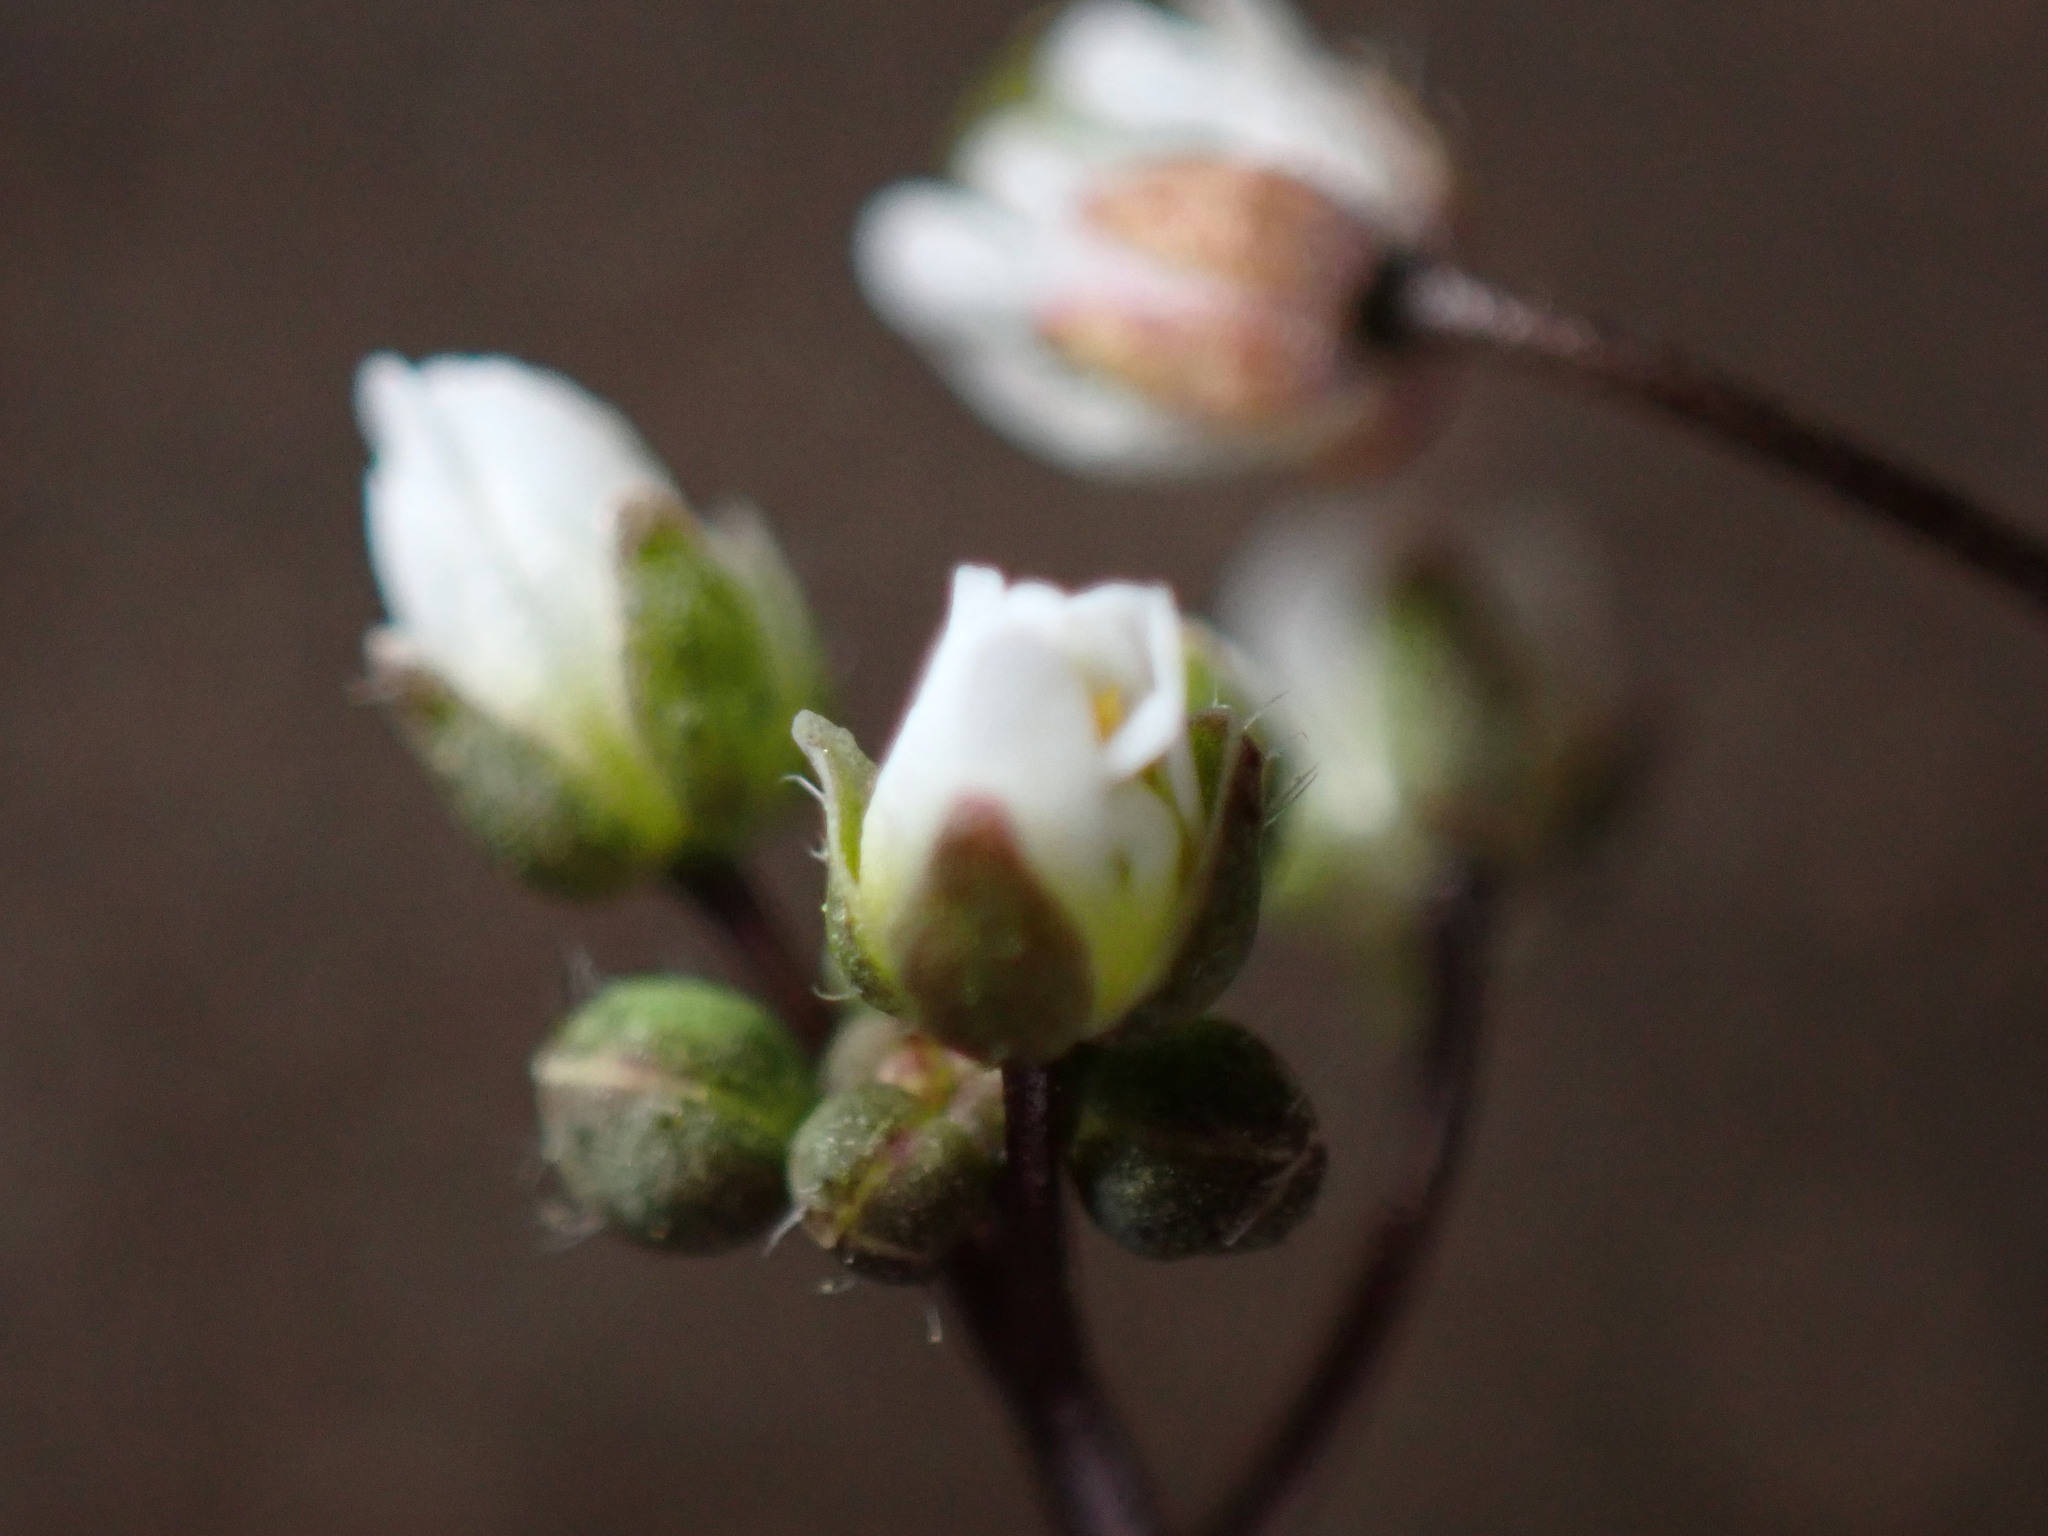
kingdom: Plantae
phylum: Tracheophyta
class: Magnoliopsida
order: Brassicales
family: Brassicaceae
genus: Draba
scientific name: Draba verna
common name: Spring draba
